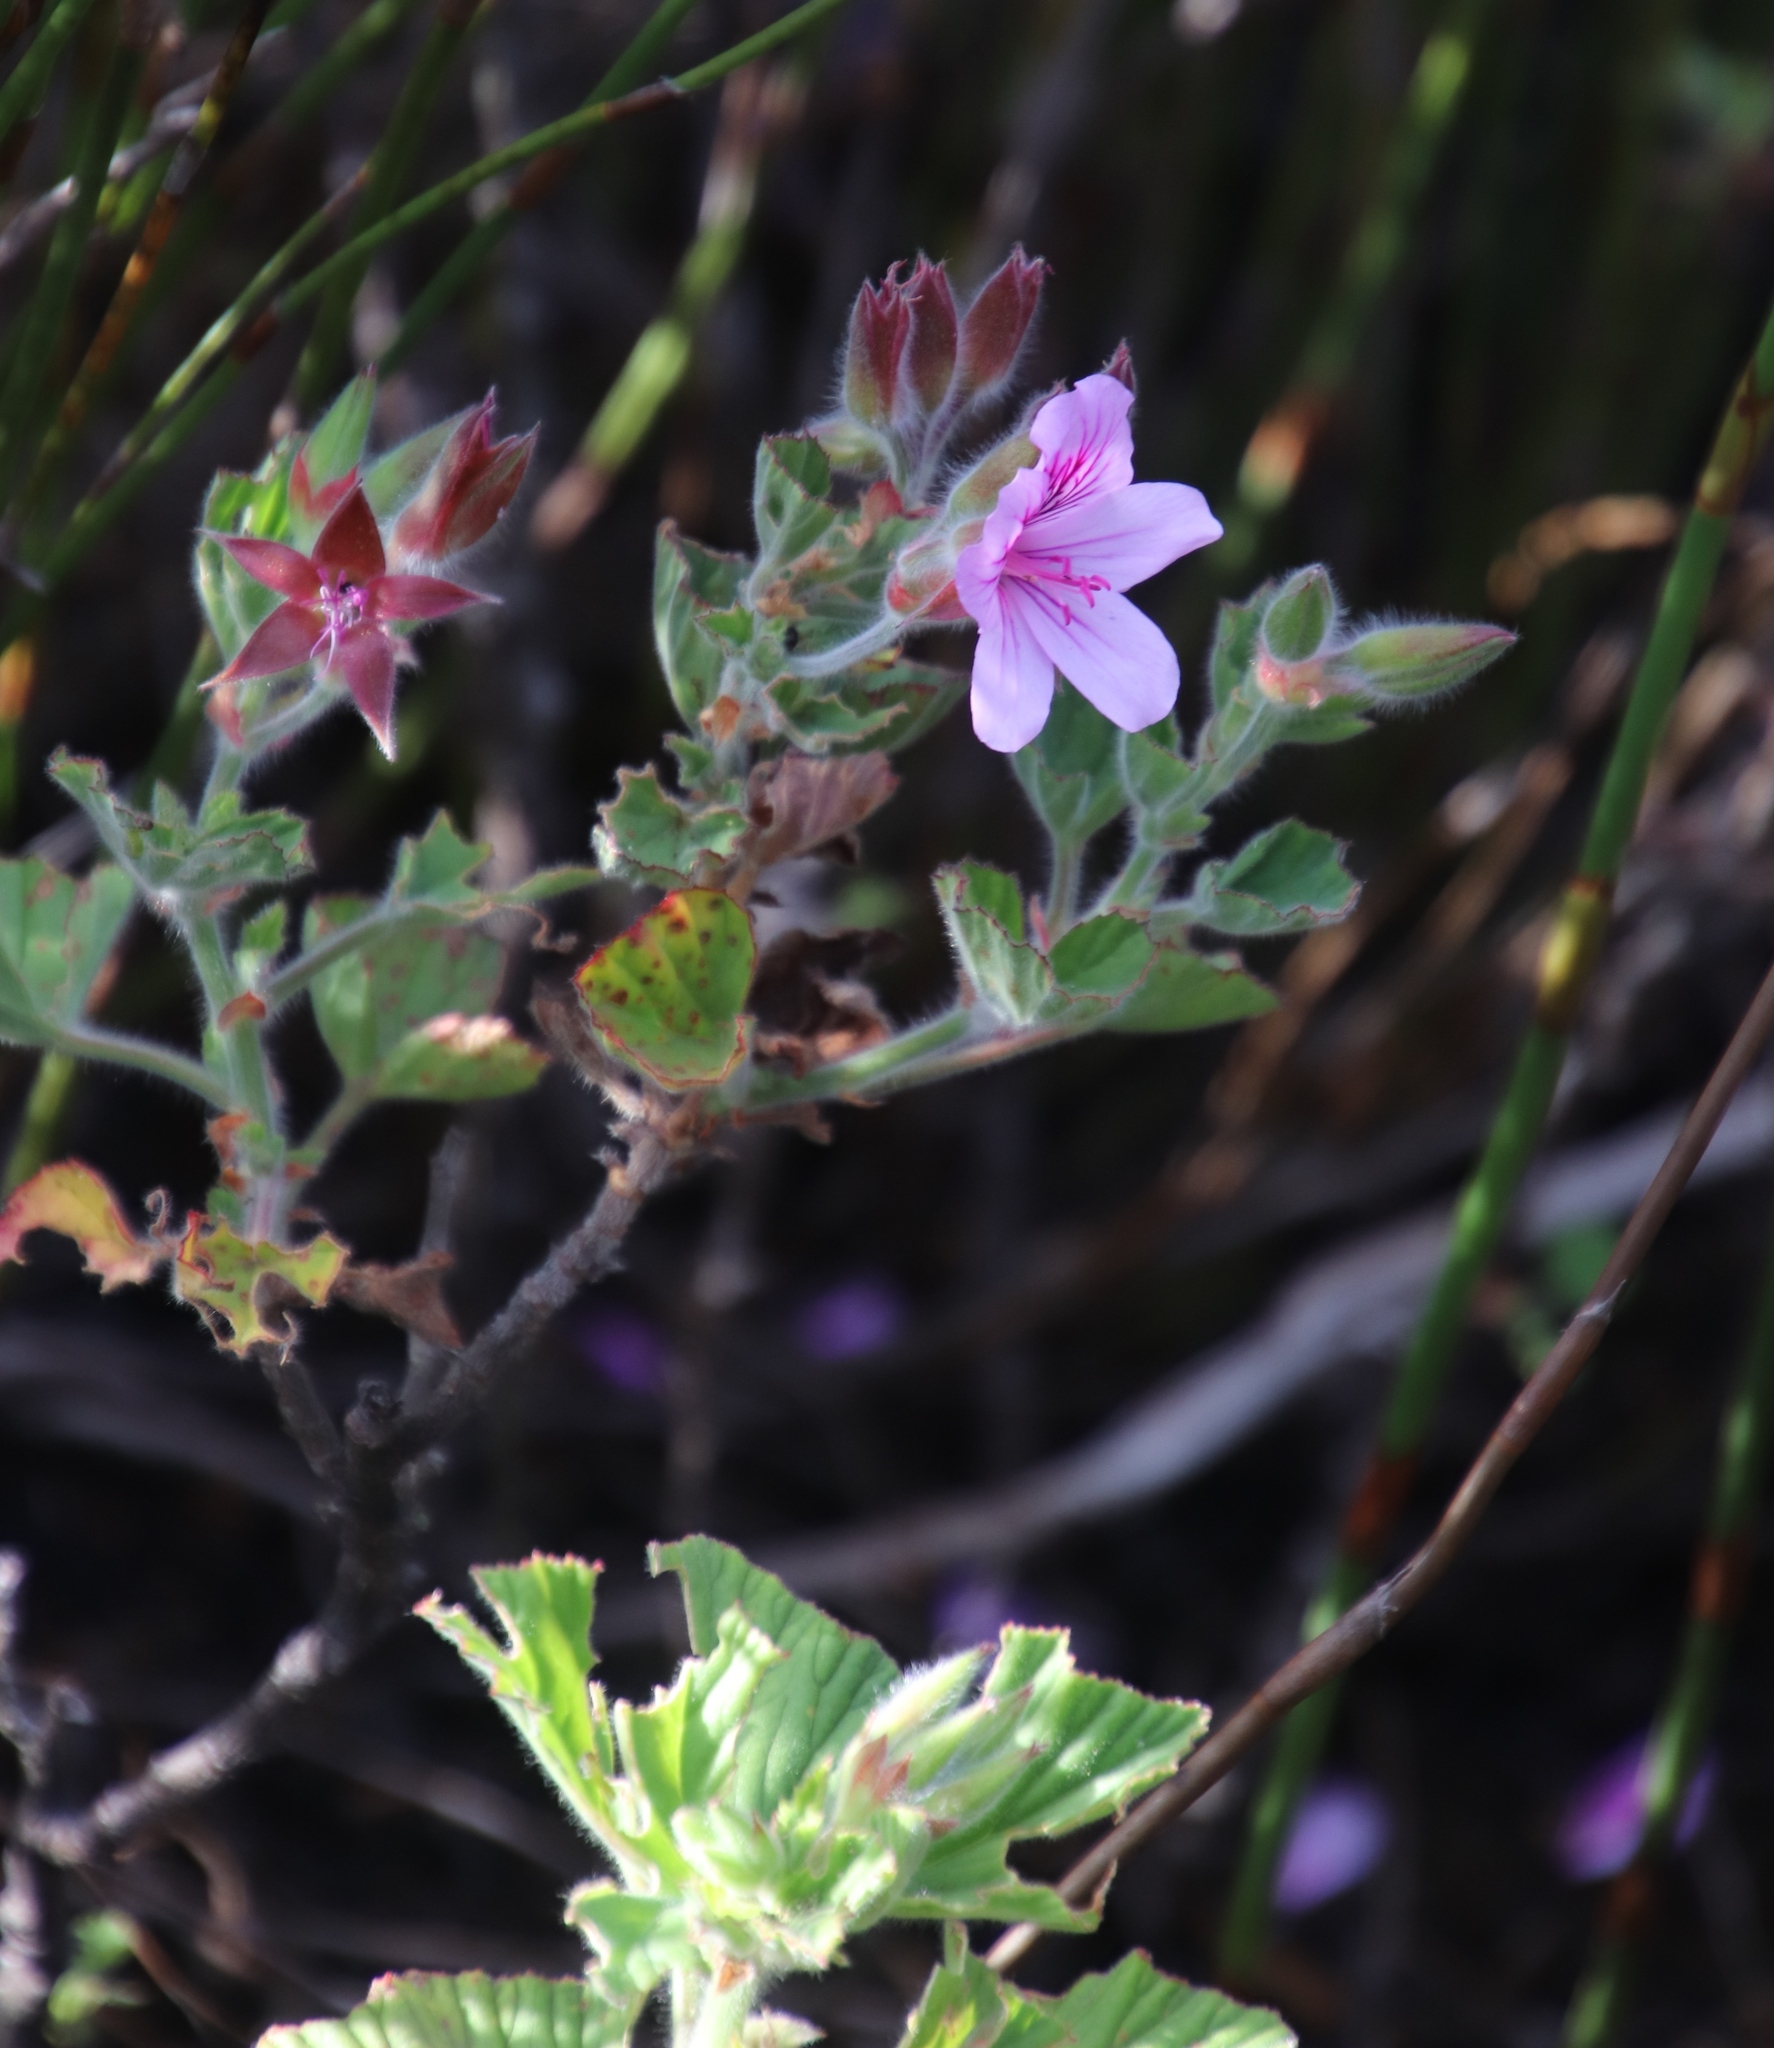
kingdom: Plantae
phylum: Tracheophyta
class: Magnoliopsida
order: Geraniales
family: Geraniaceae
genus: Pelargonium
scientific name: Pelargonium cucullatum
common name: Tree pelargonium
